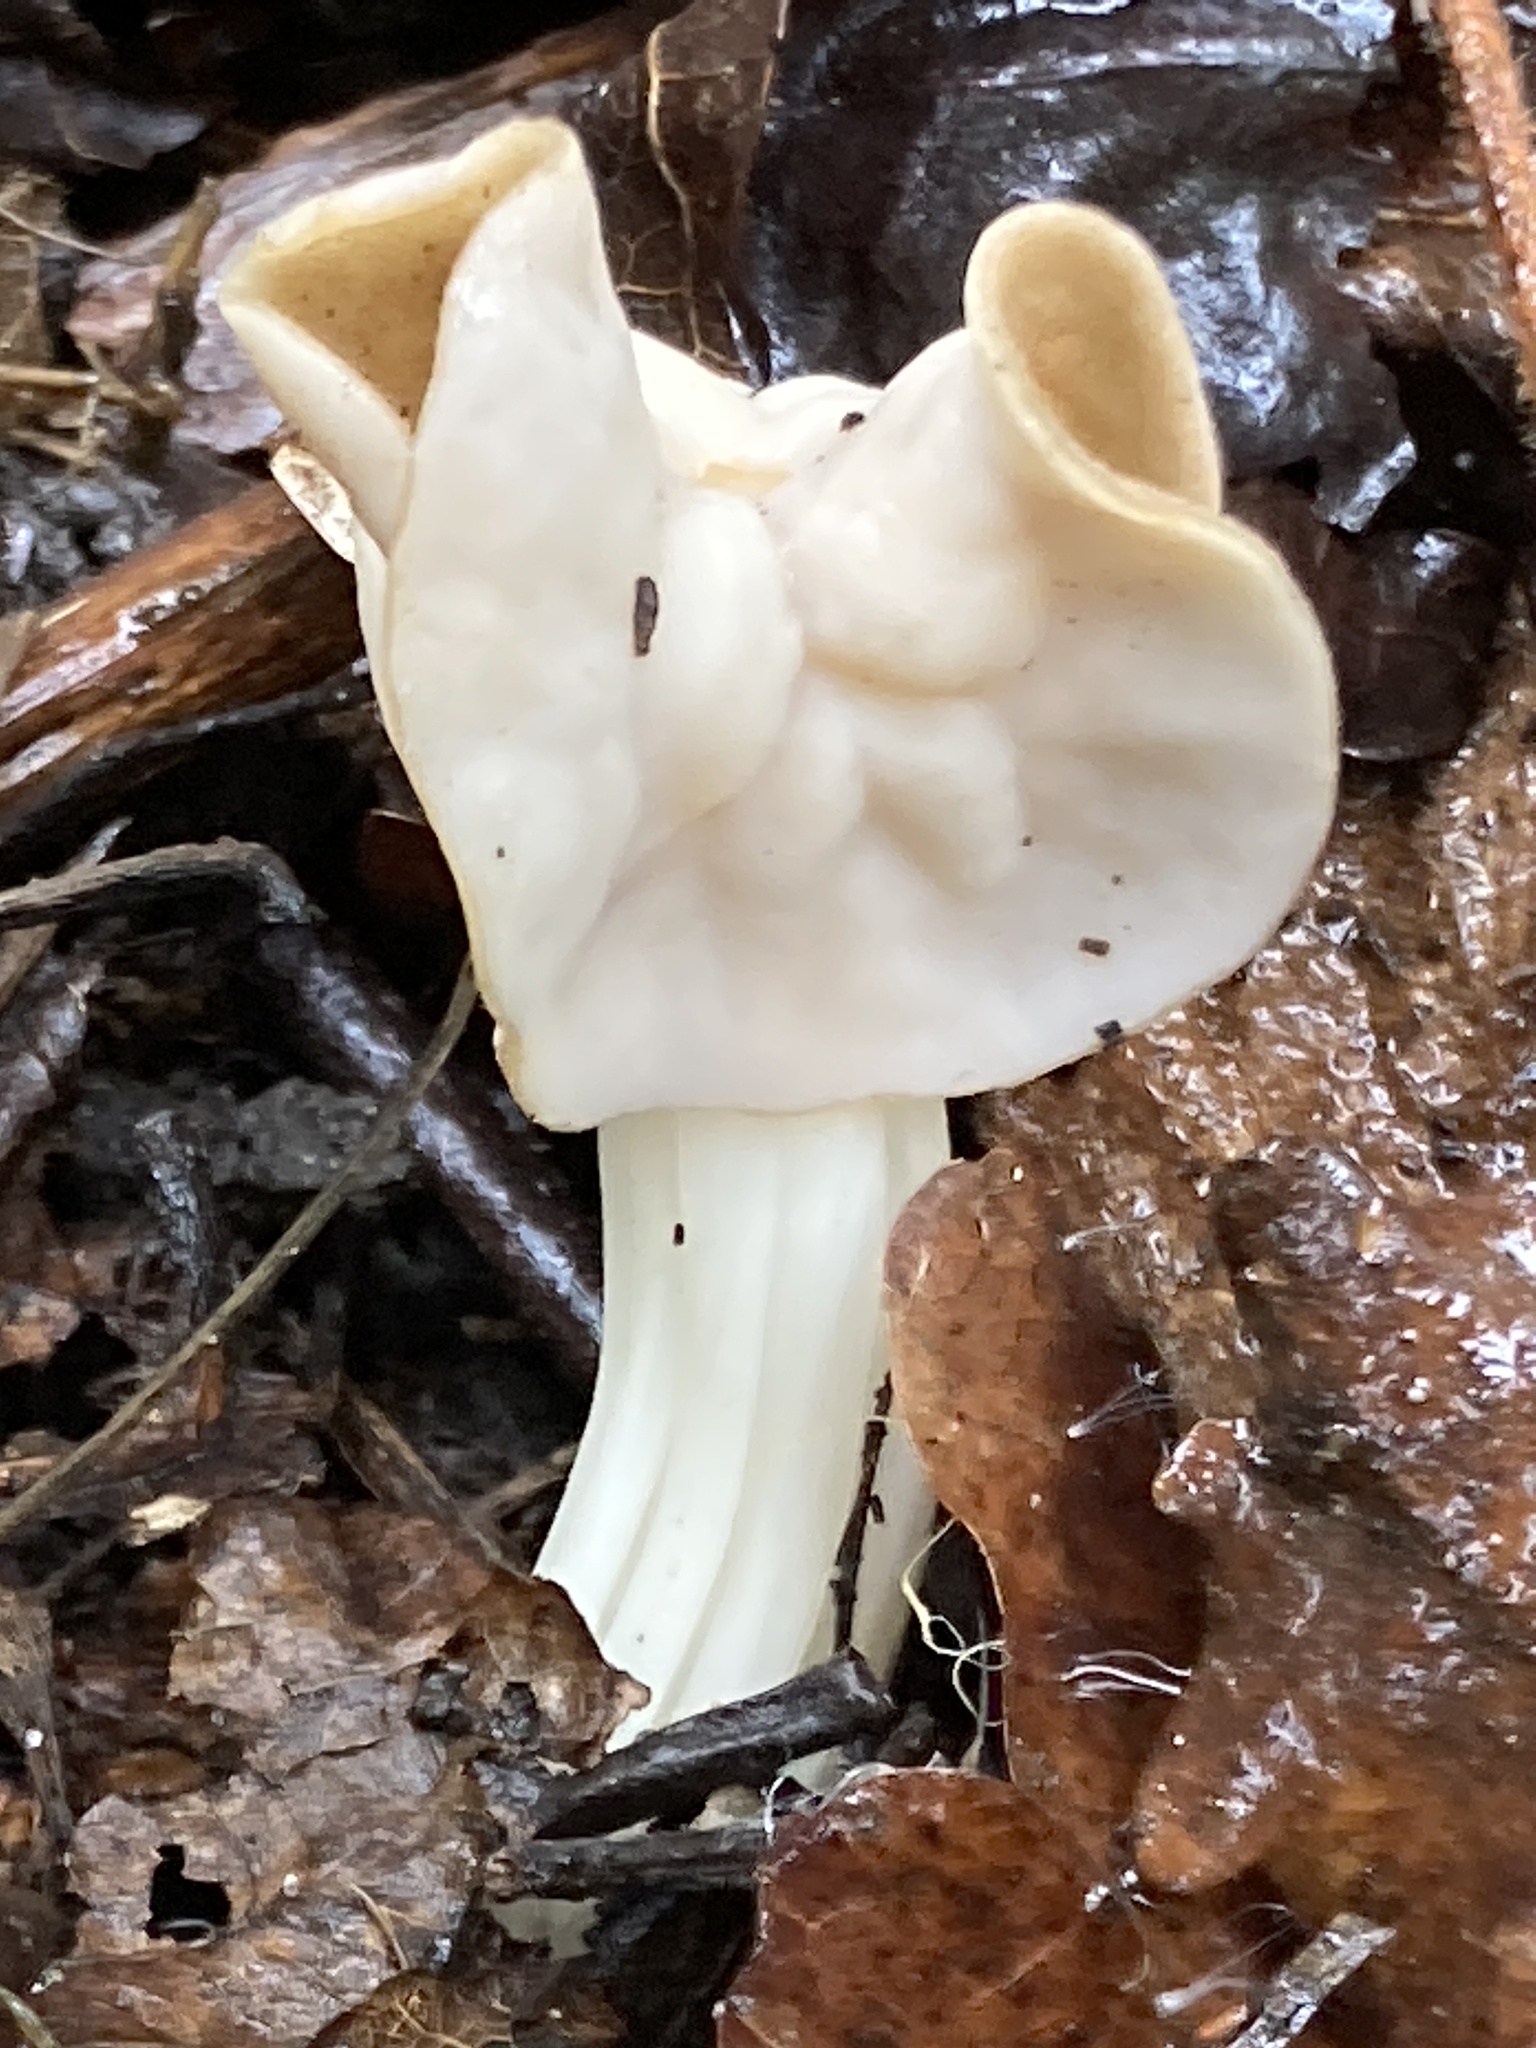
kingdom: Fungi
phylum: Ascomycota
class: Pezizomycetes
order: Pezizales
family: Helvellaceae
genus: Helvella
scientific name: Helvella crispa
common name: White saddle
